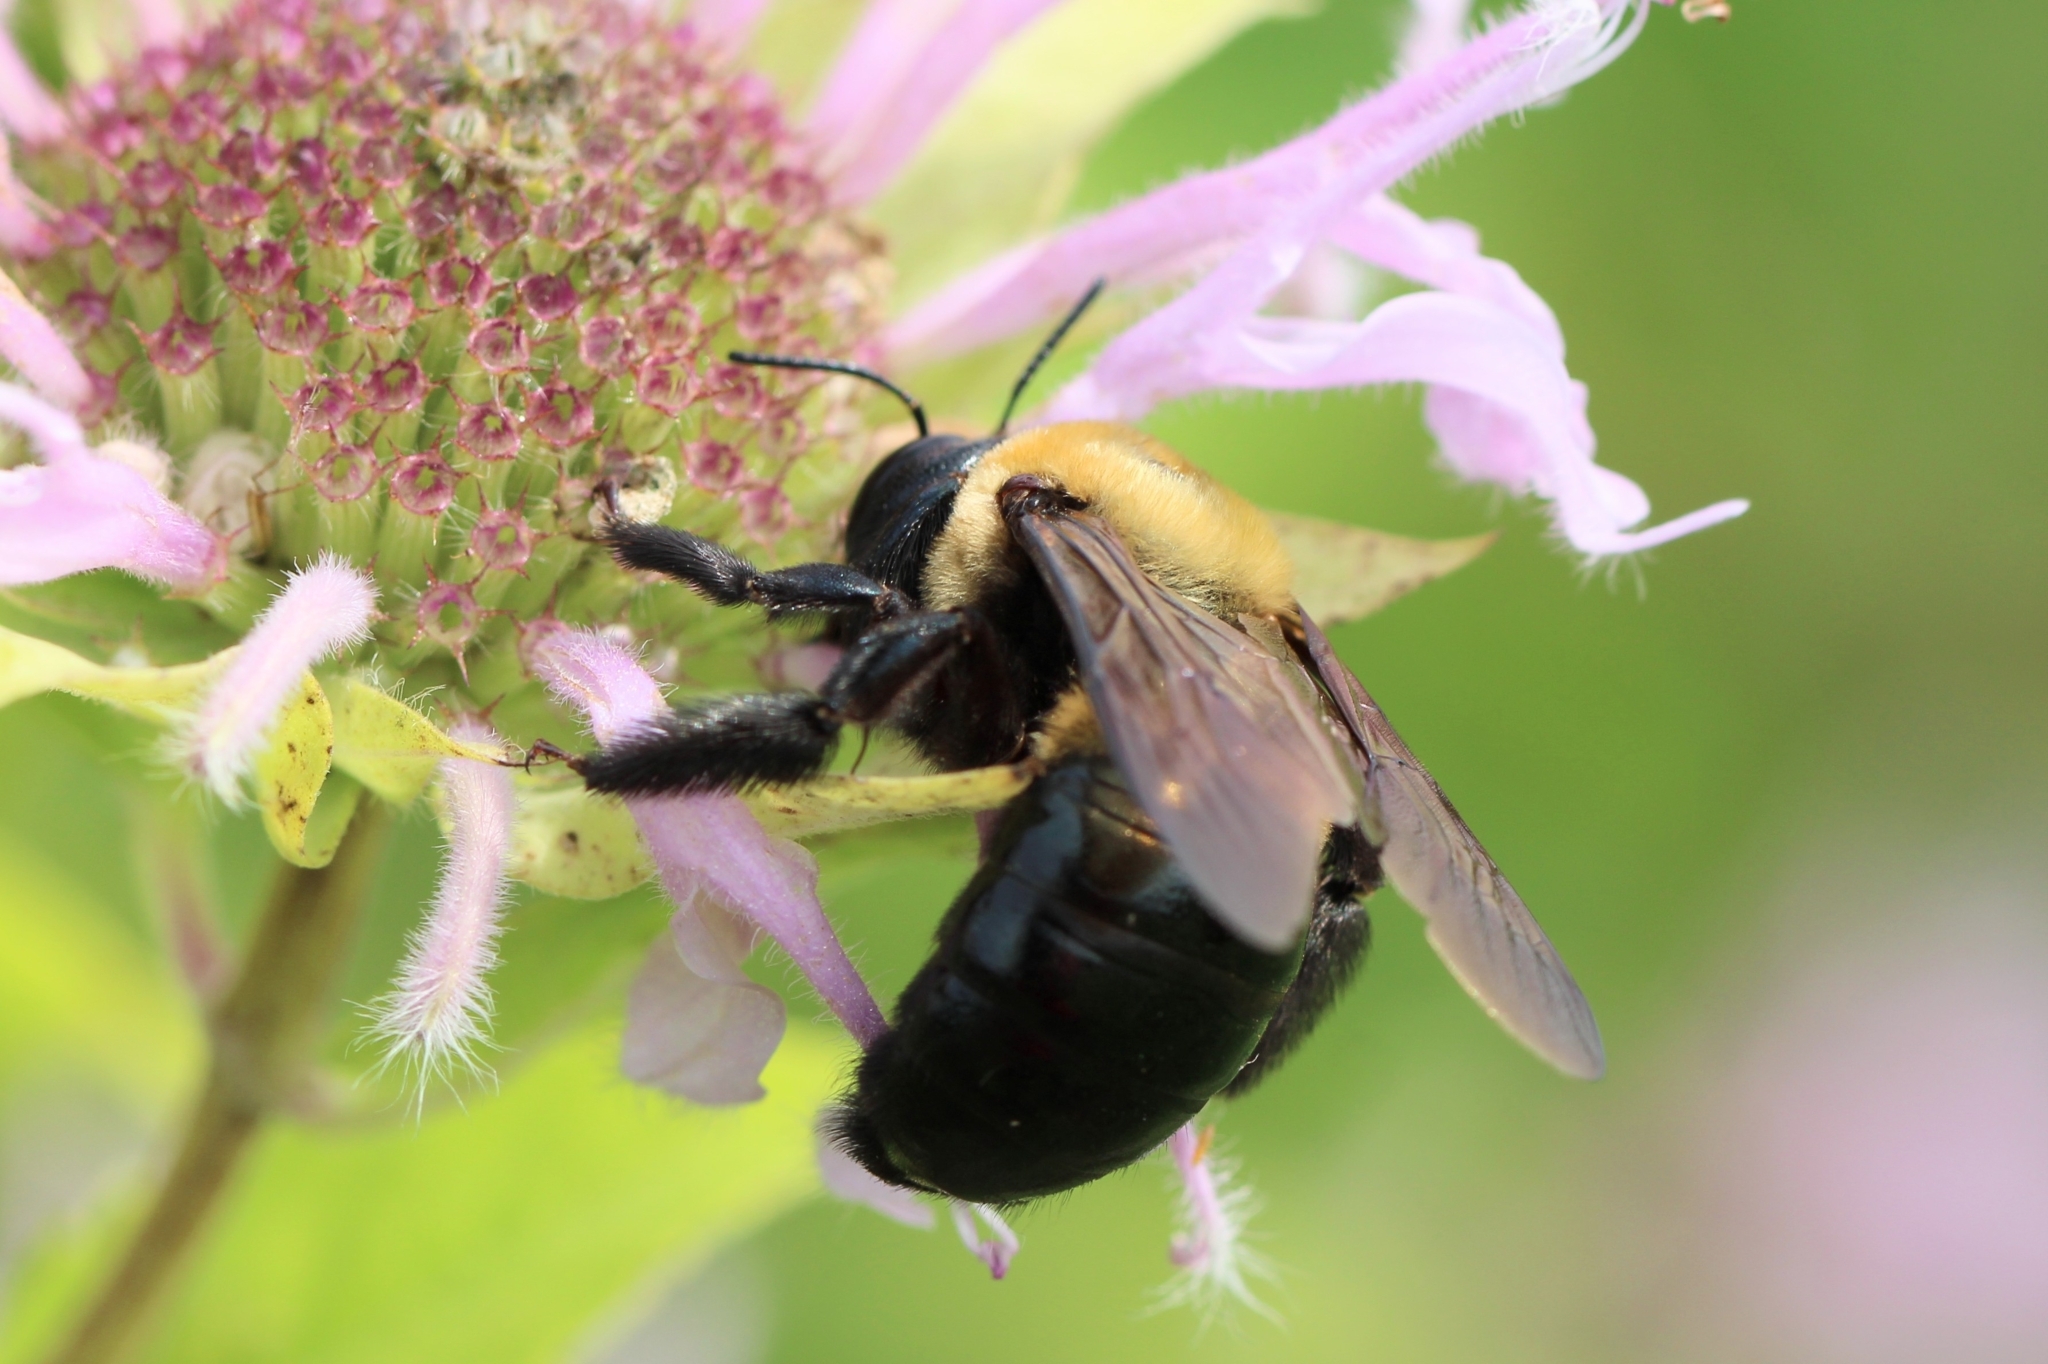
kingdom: Animalia
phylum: Arthropoda
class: Insecta
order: Hymenoptera
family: Apidae
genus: Xylocopa
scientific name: Xylocopa virginica
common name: Carpenter bee
